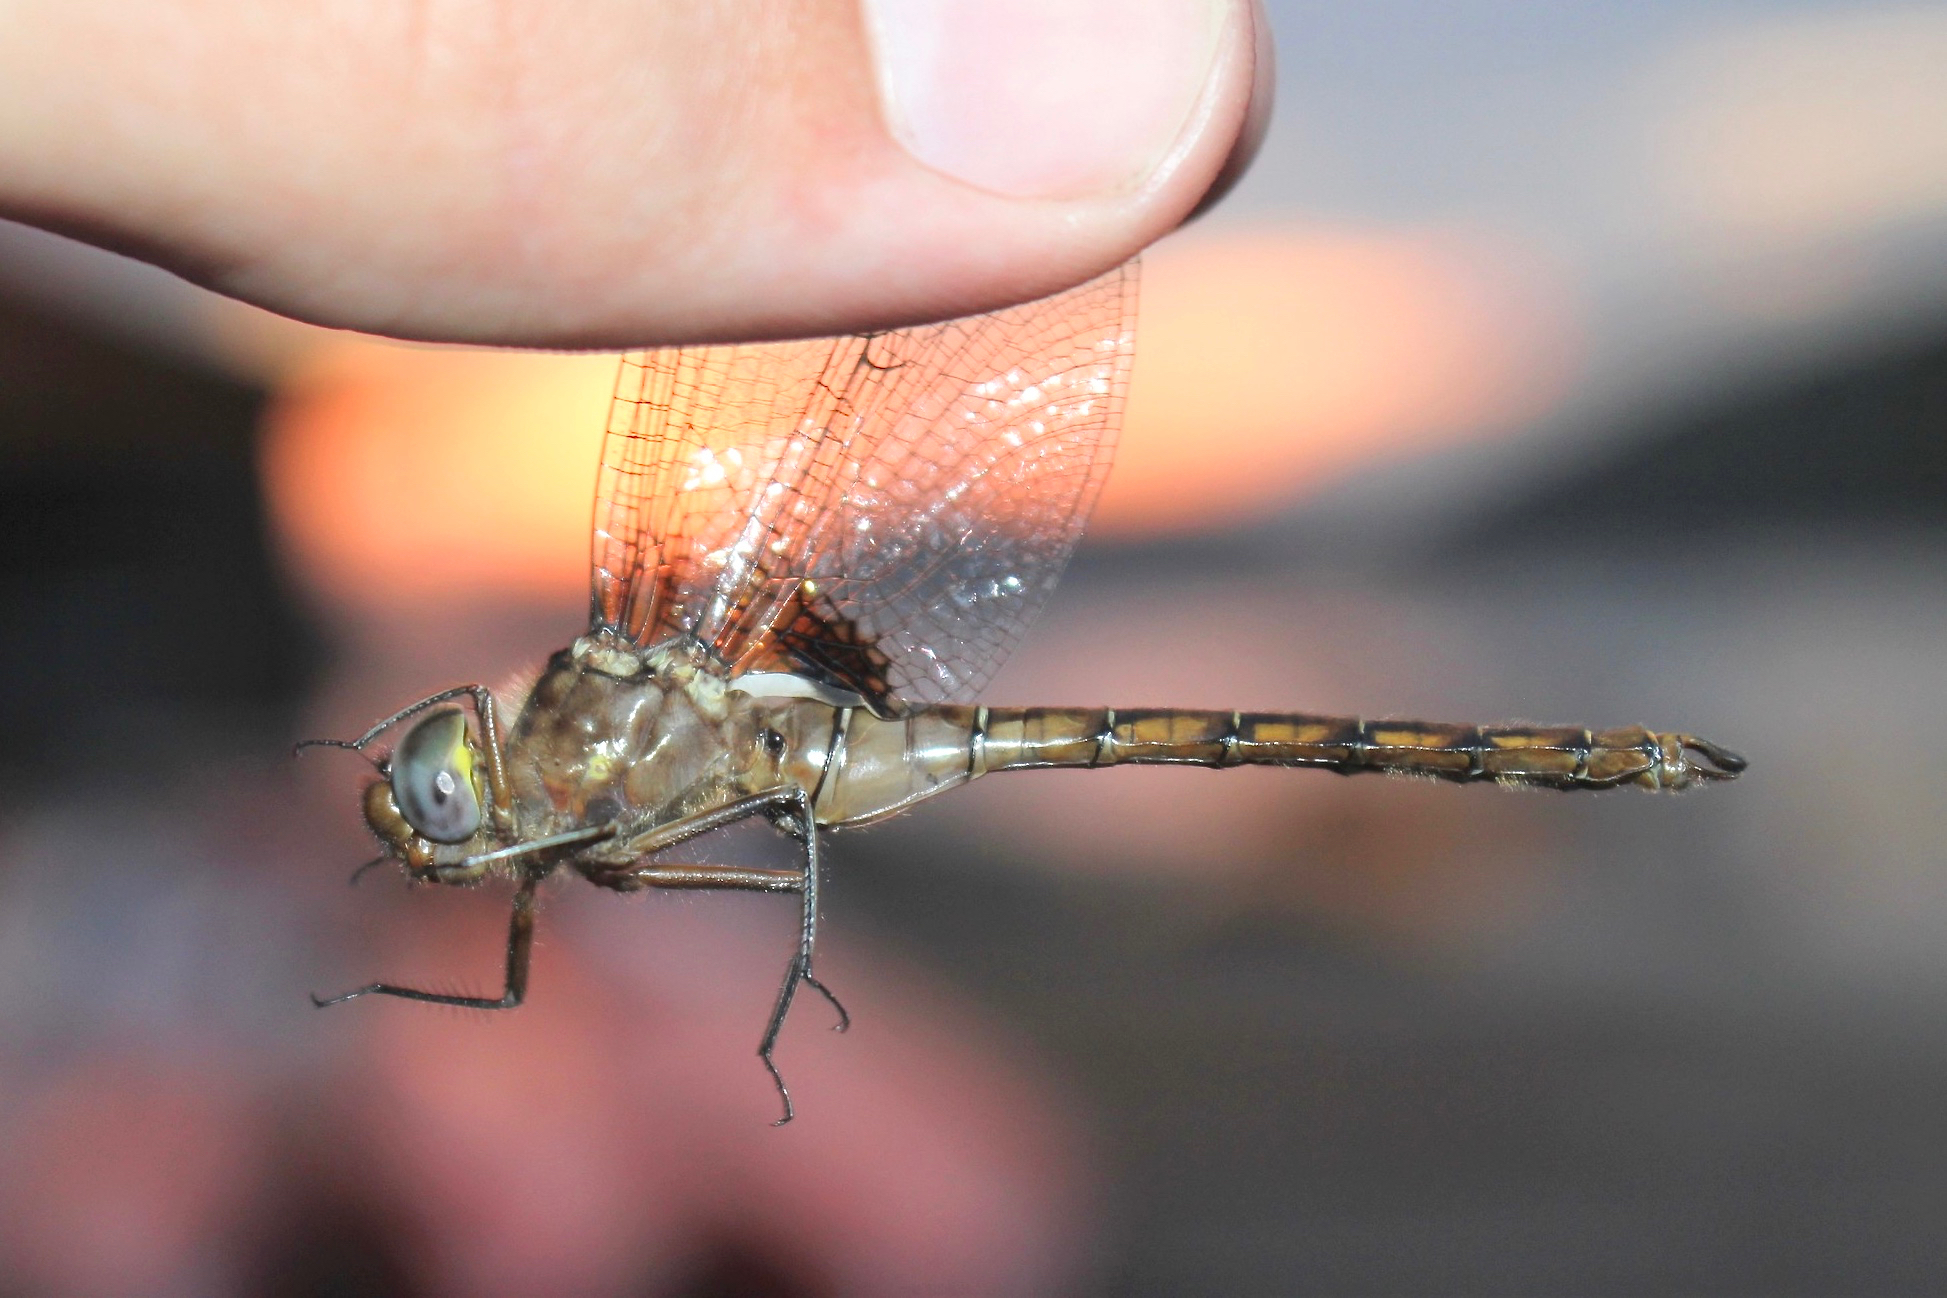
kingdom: Animalia
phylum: Arthropoda
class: Insecta
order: Odonata
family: Corduliidae
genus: Neurocordulia
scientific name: Neurocordulia yamaskanensis
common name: Stygian shadowdragon
